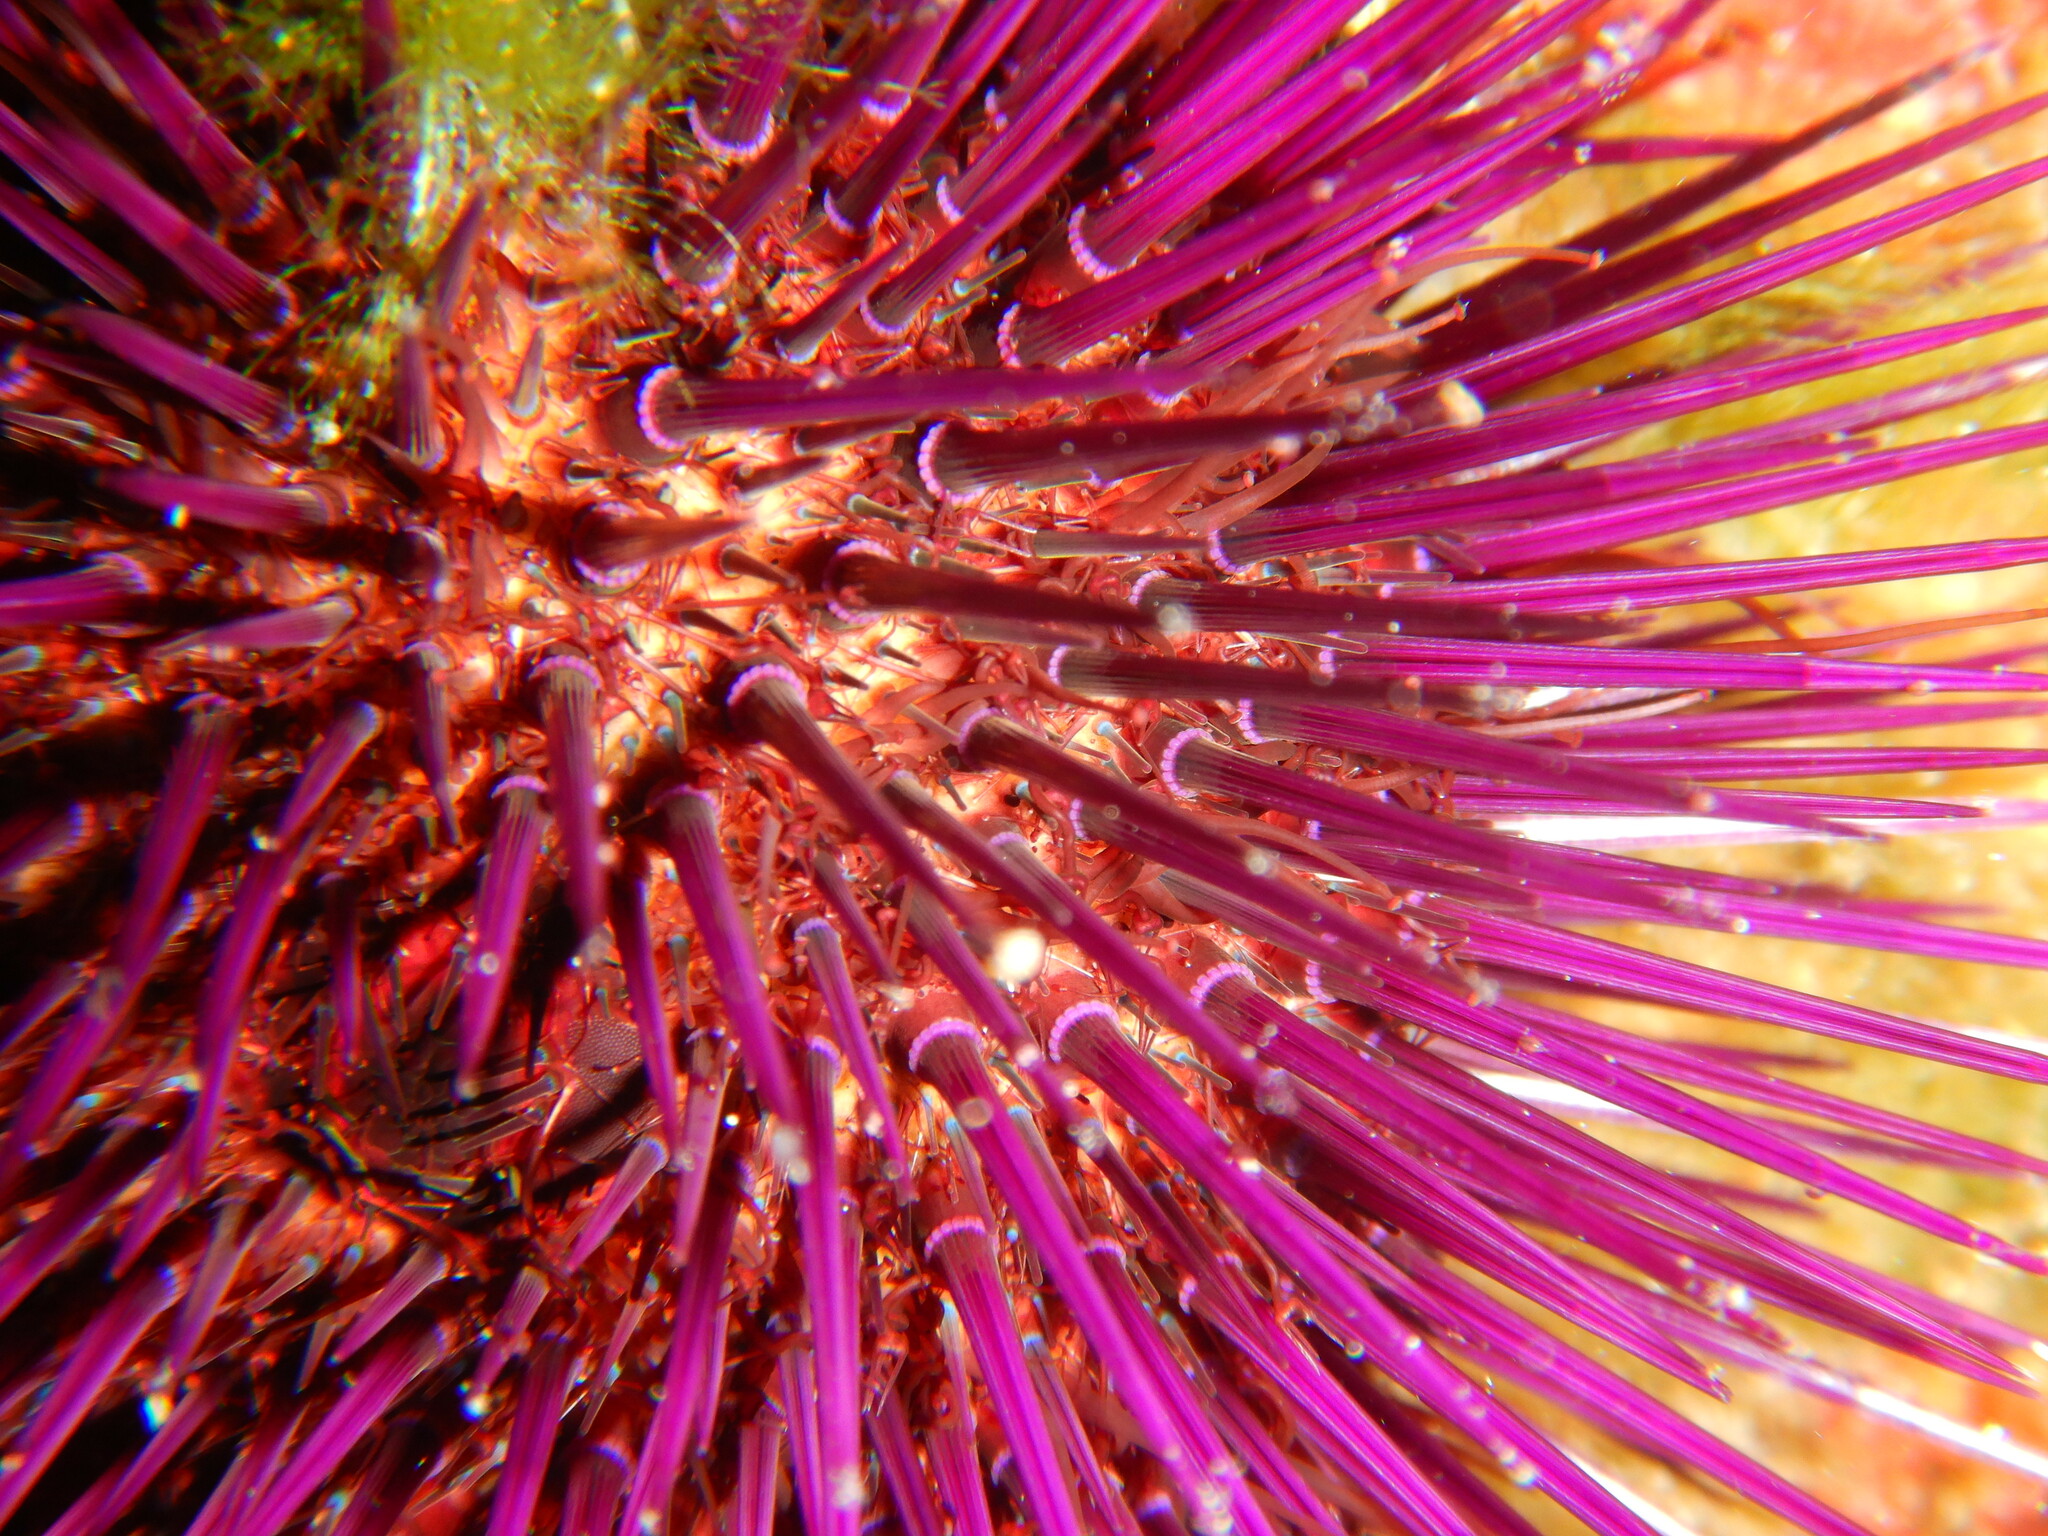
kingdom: Animalia
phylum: Echinodermata
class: Echinoidea
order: Camarodonta
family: Parechinidae
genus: Paracentrotus
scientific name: Paracentrotus lividus
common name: Purple sea urchin
